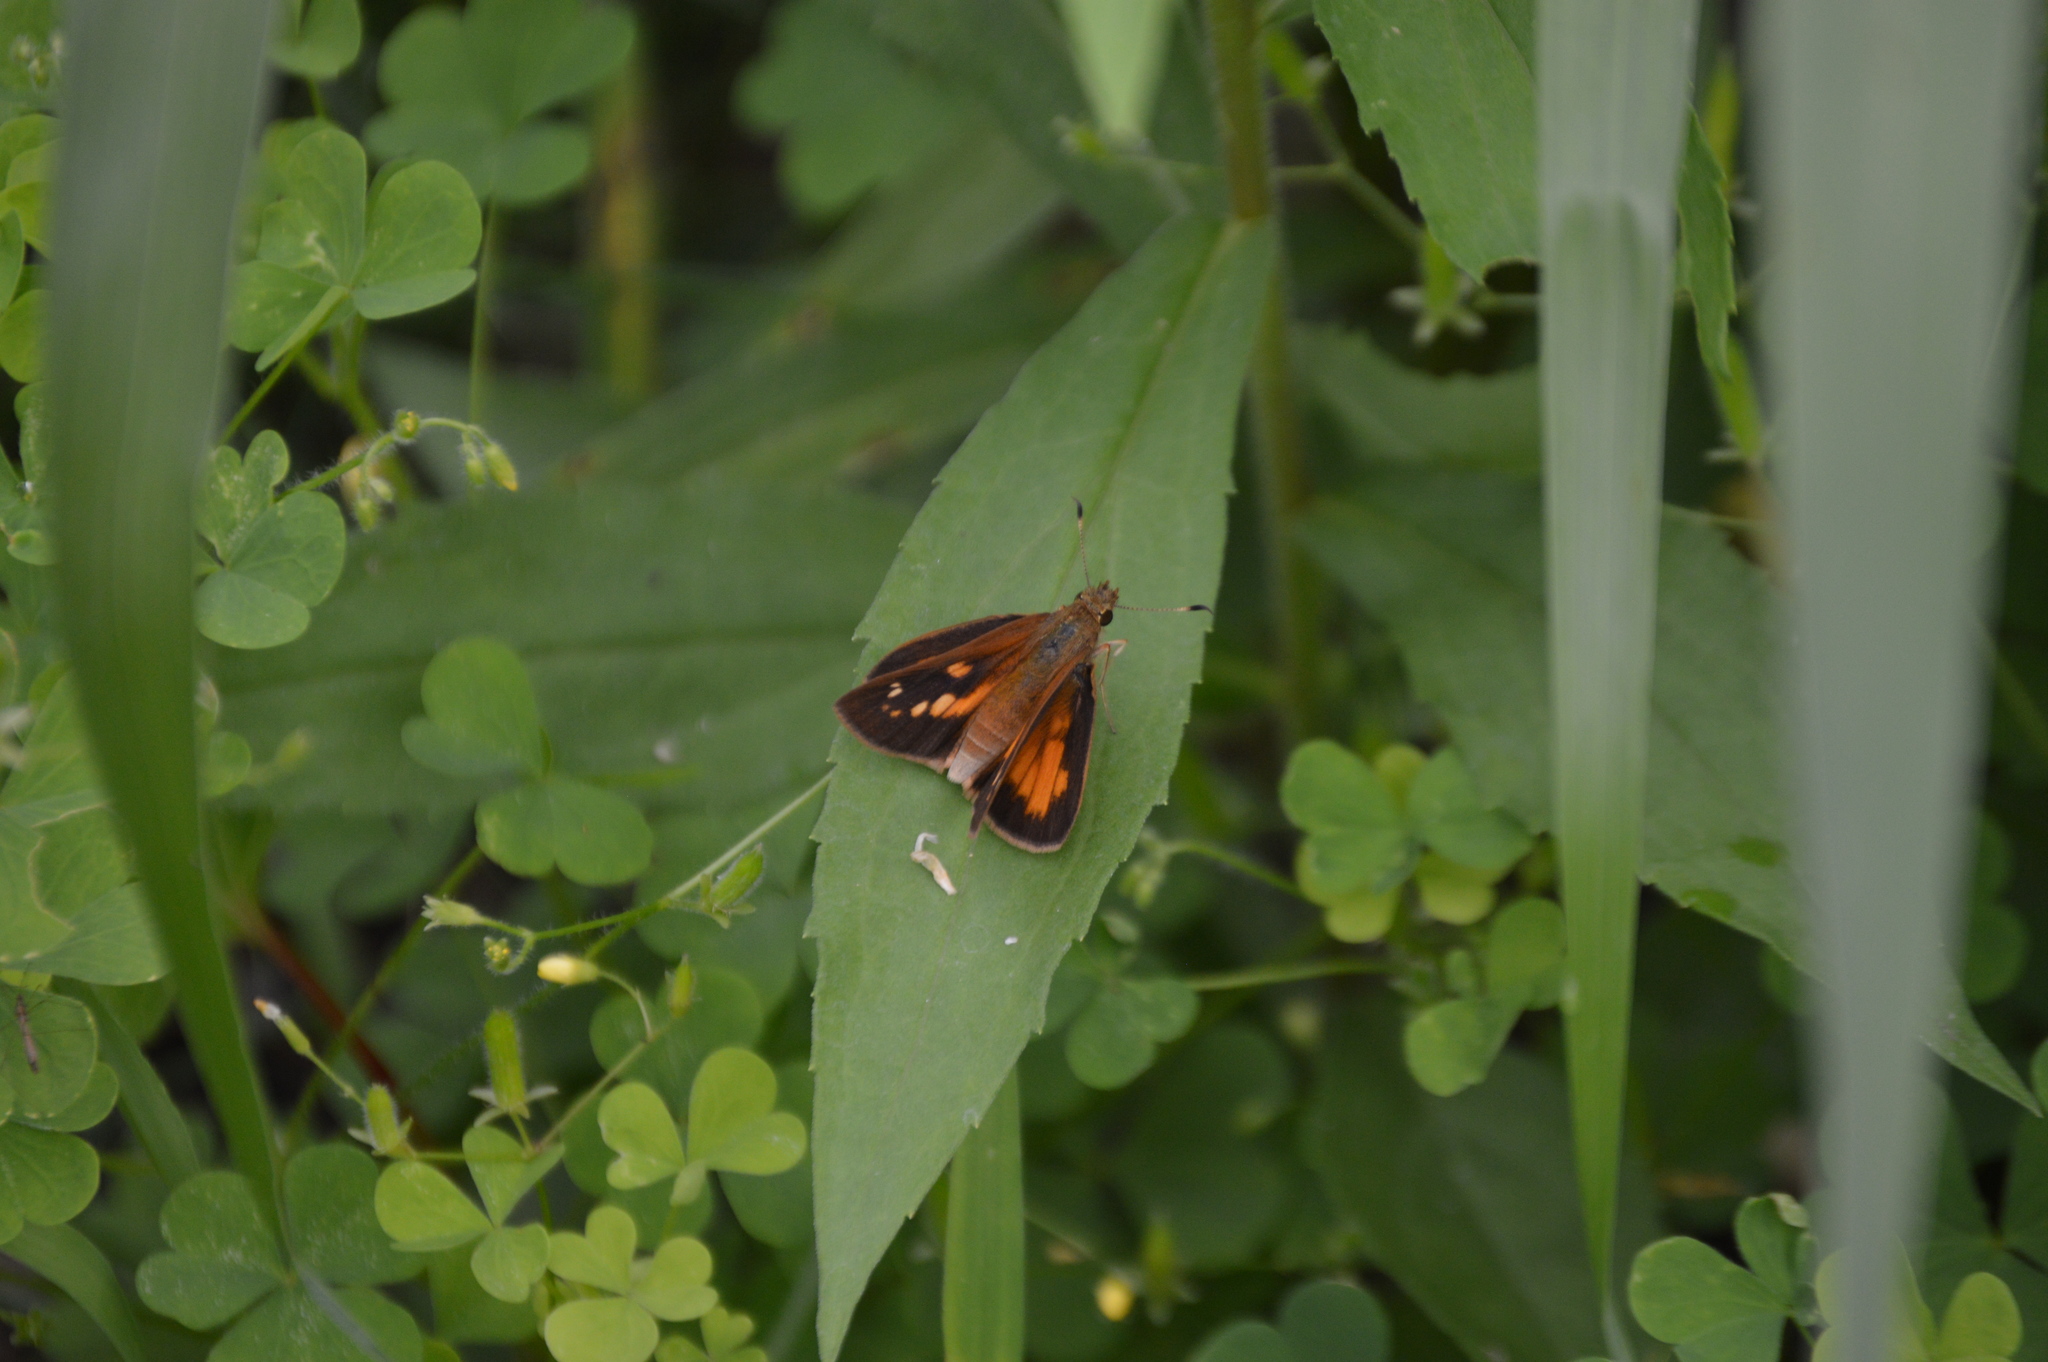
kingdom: Animalia
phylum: Arthropoda
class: Insecta
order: Lepidoptera
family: Hesperiidae
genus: Poanes
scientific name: Poanes viator
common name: Broad-winged skipper
